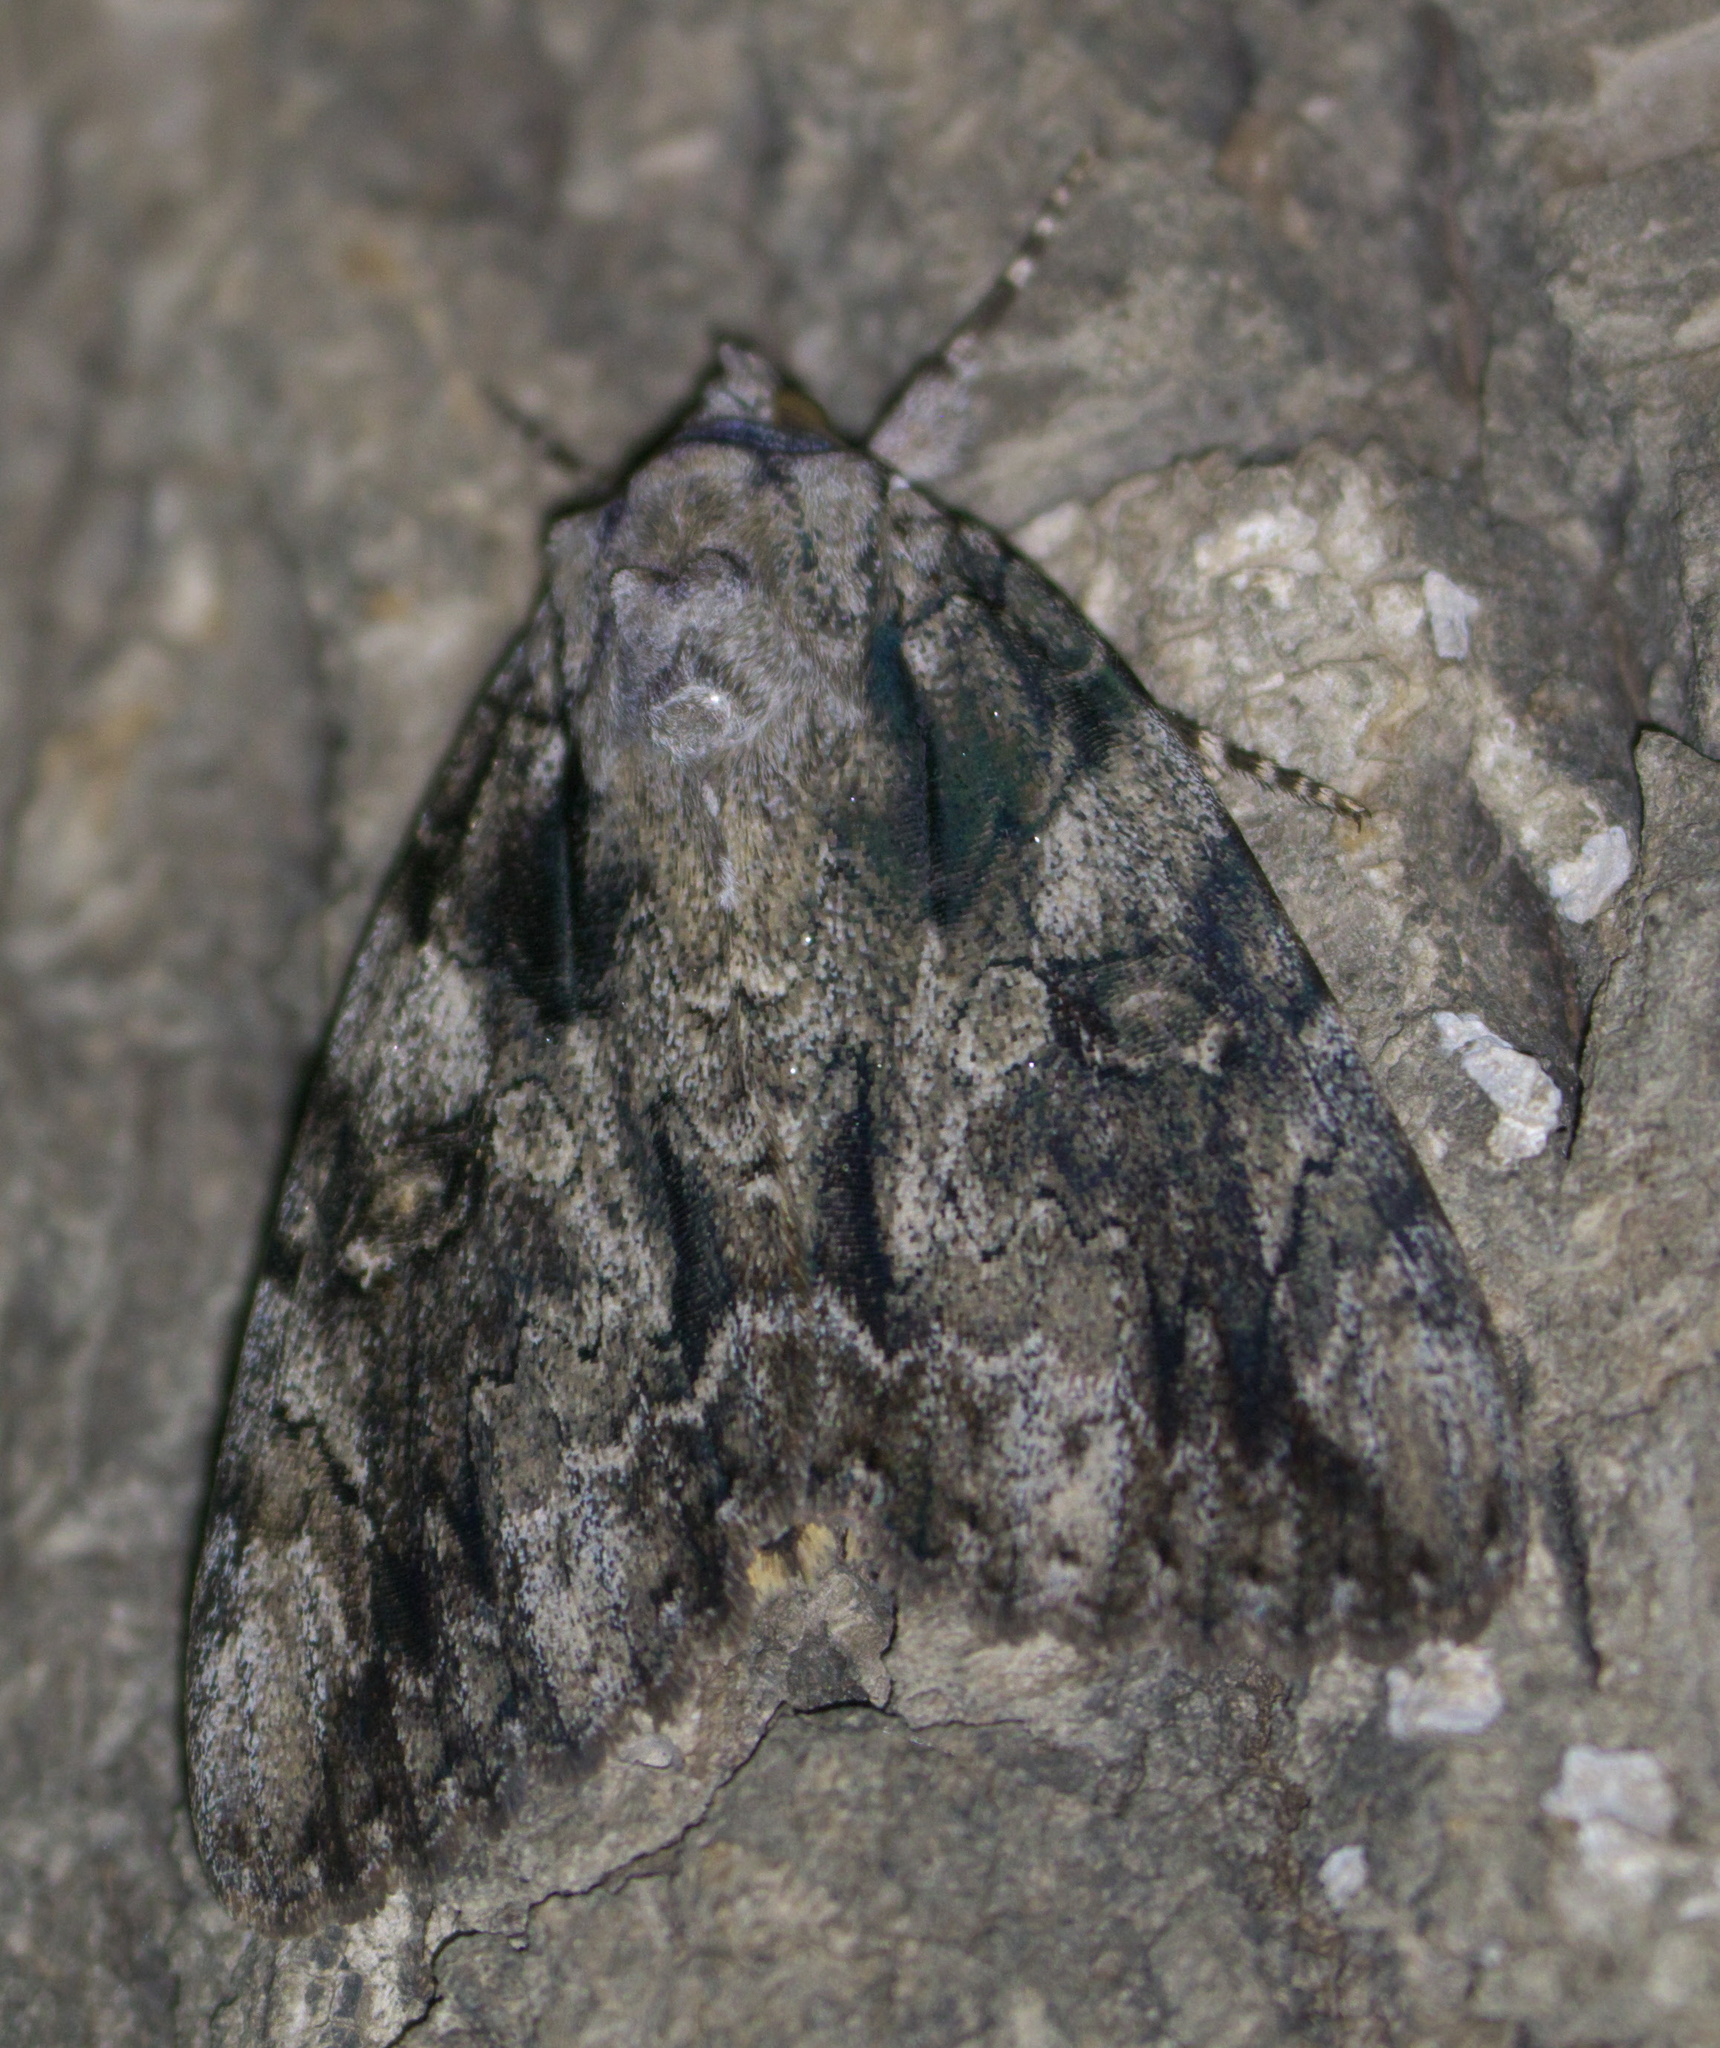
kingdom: Animalia
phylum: Arthropoda
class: Insecta
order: Lepidoptera
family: Erebidae
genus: Catocala
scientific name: Catocala neogama
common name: Bride underwing
